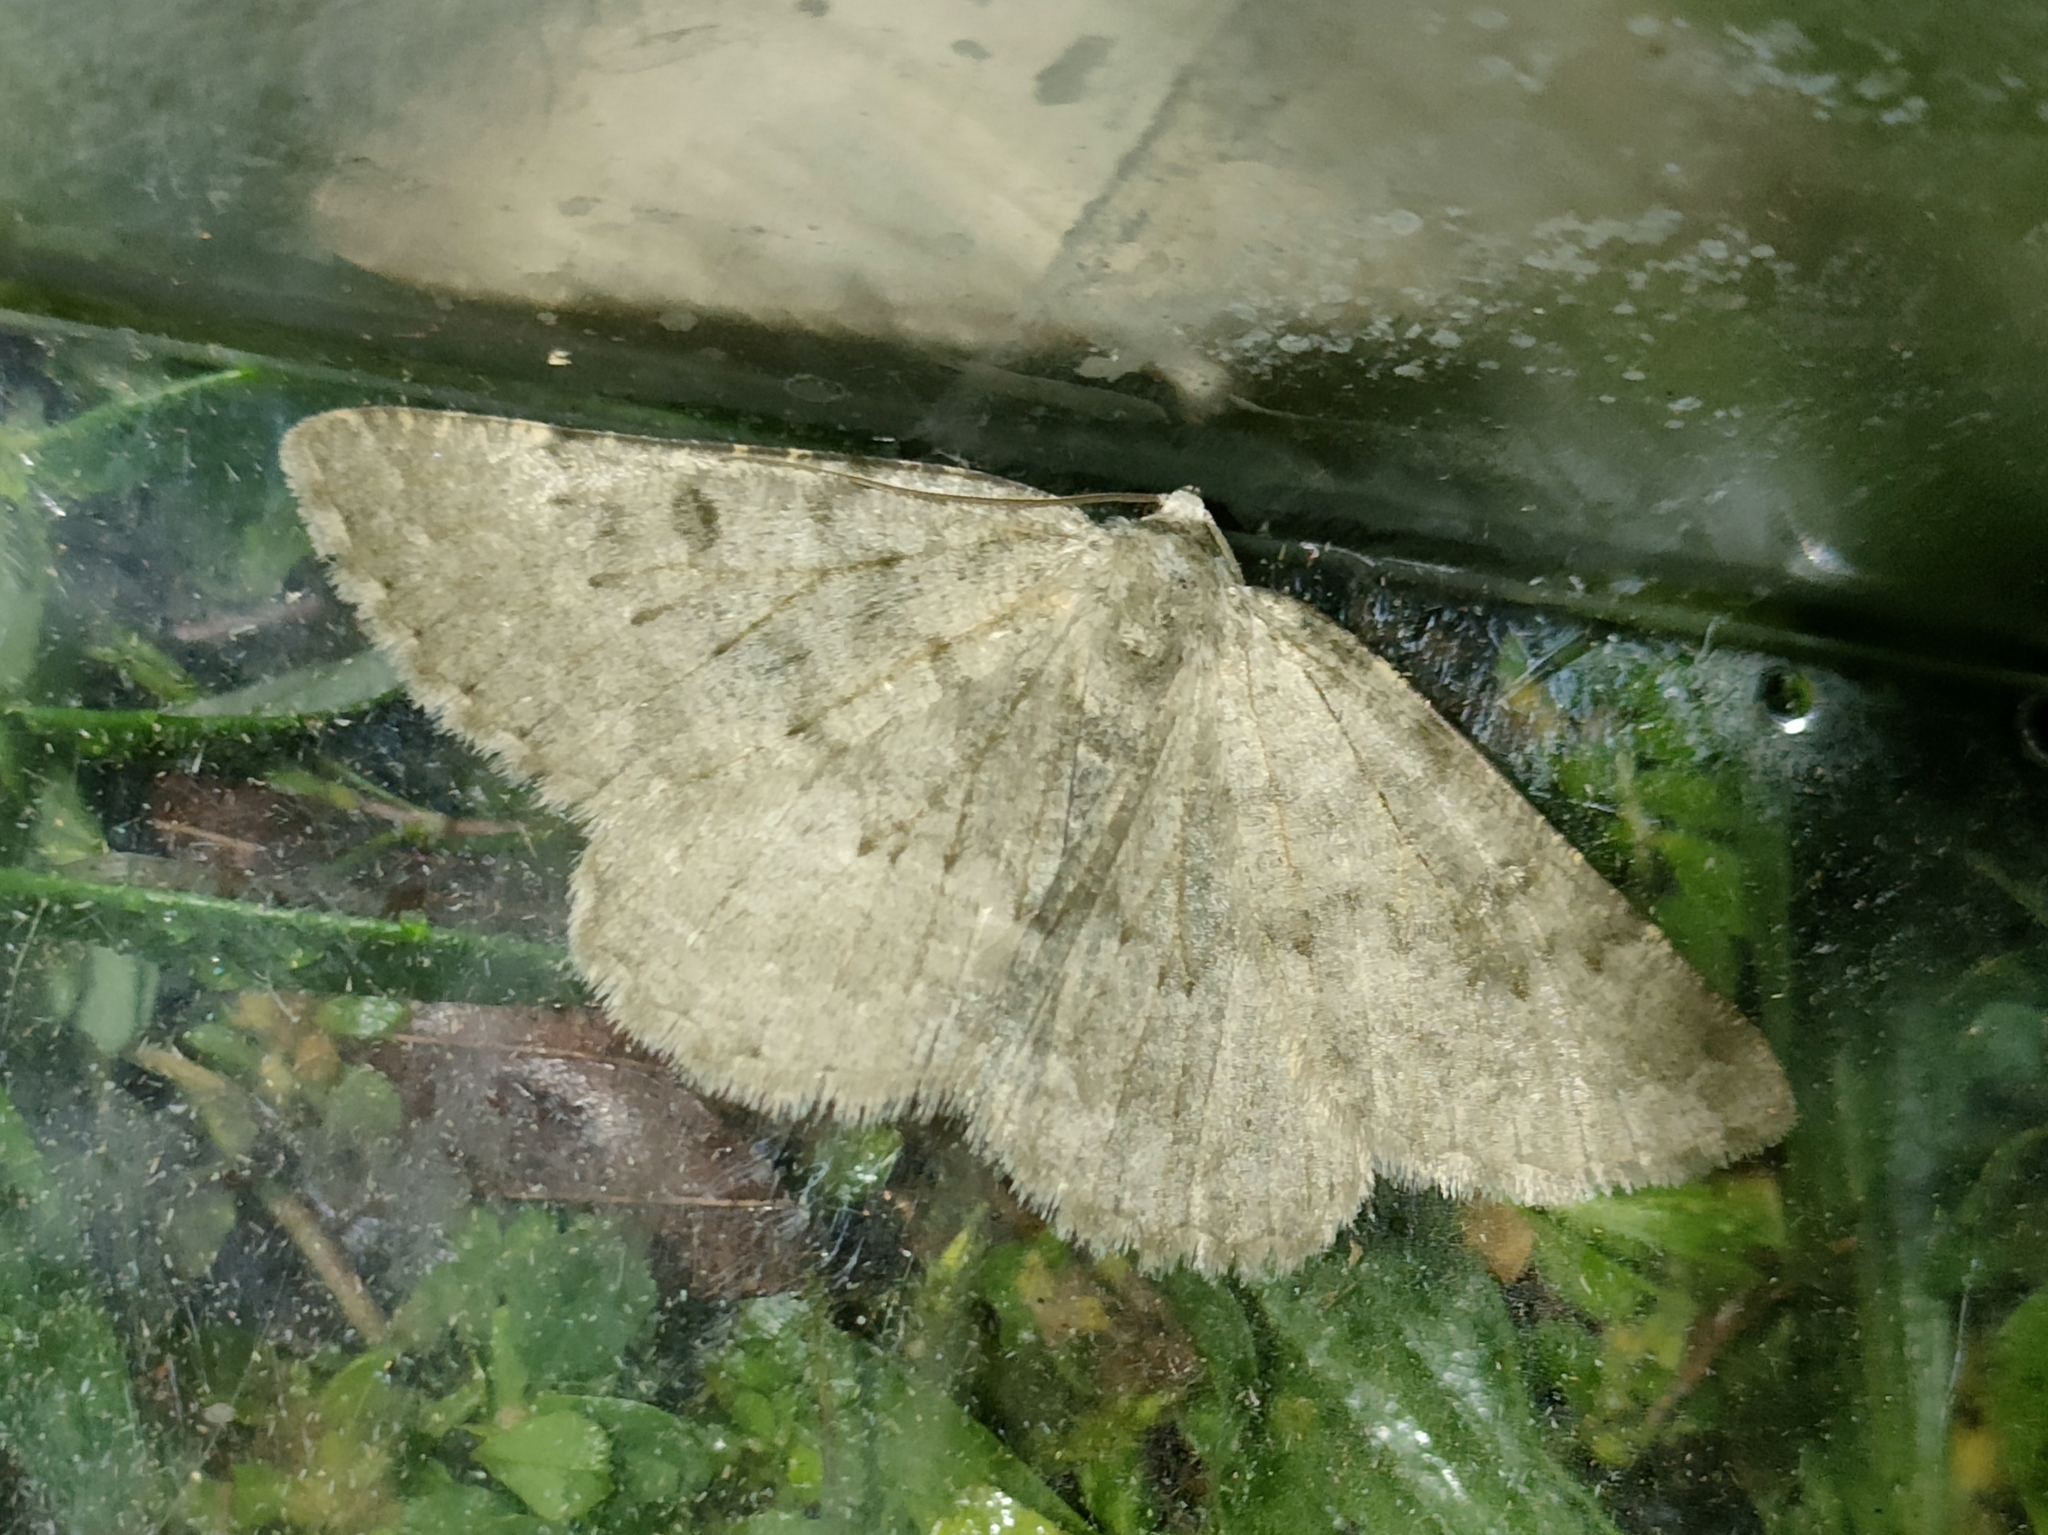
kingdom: Animalia
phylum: Arthropoda
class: Insecta
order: Lepidoptera
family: Geometridae
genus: Gnophos
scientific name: Gnophos obfuscata
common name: Scottish annulet
